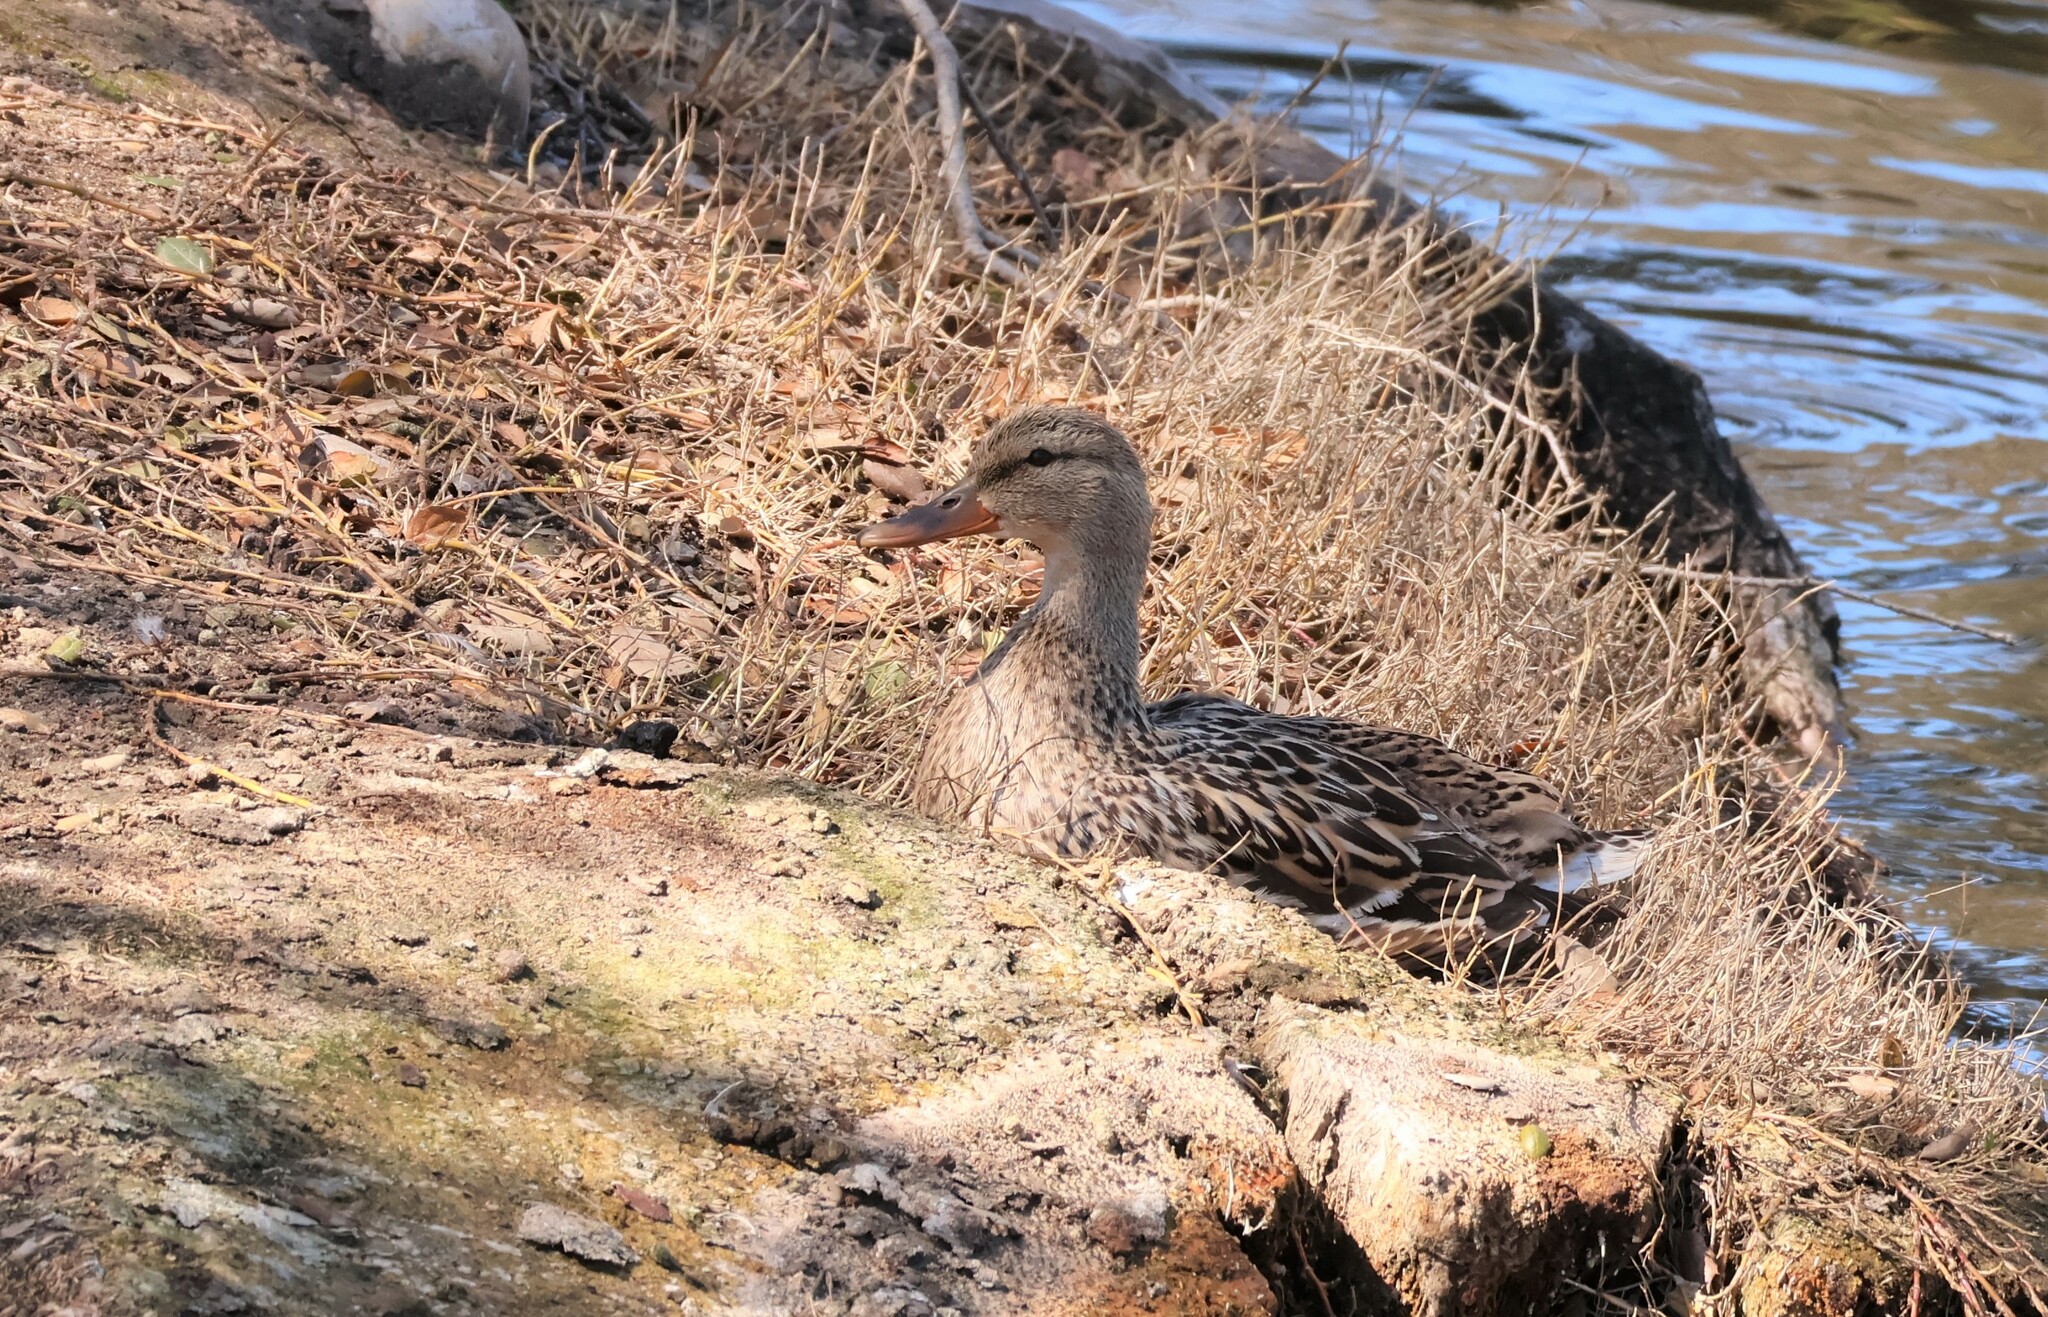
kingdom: Animalia
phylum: Chordata
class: Aves
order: Anseriformes
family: Anatidae
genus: Anas
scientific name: Anas platyrhynchos
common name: Mallard
